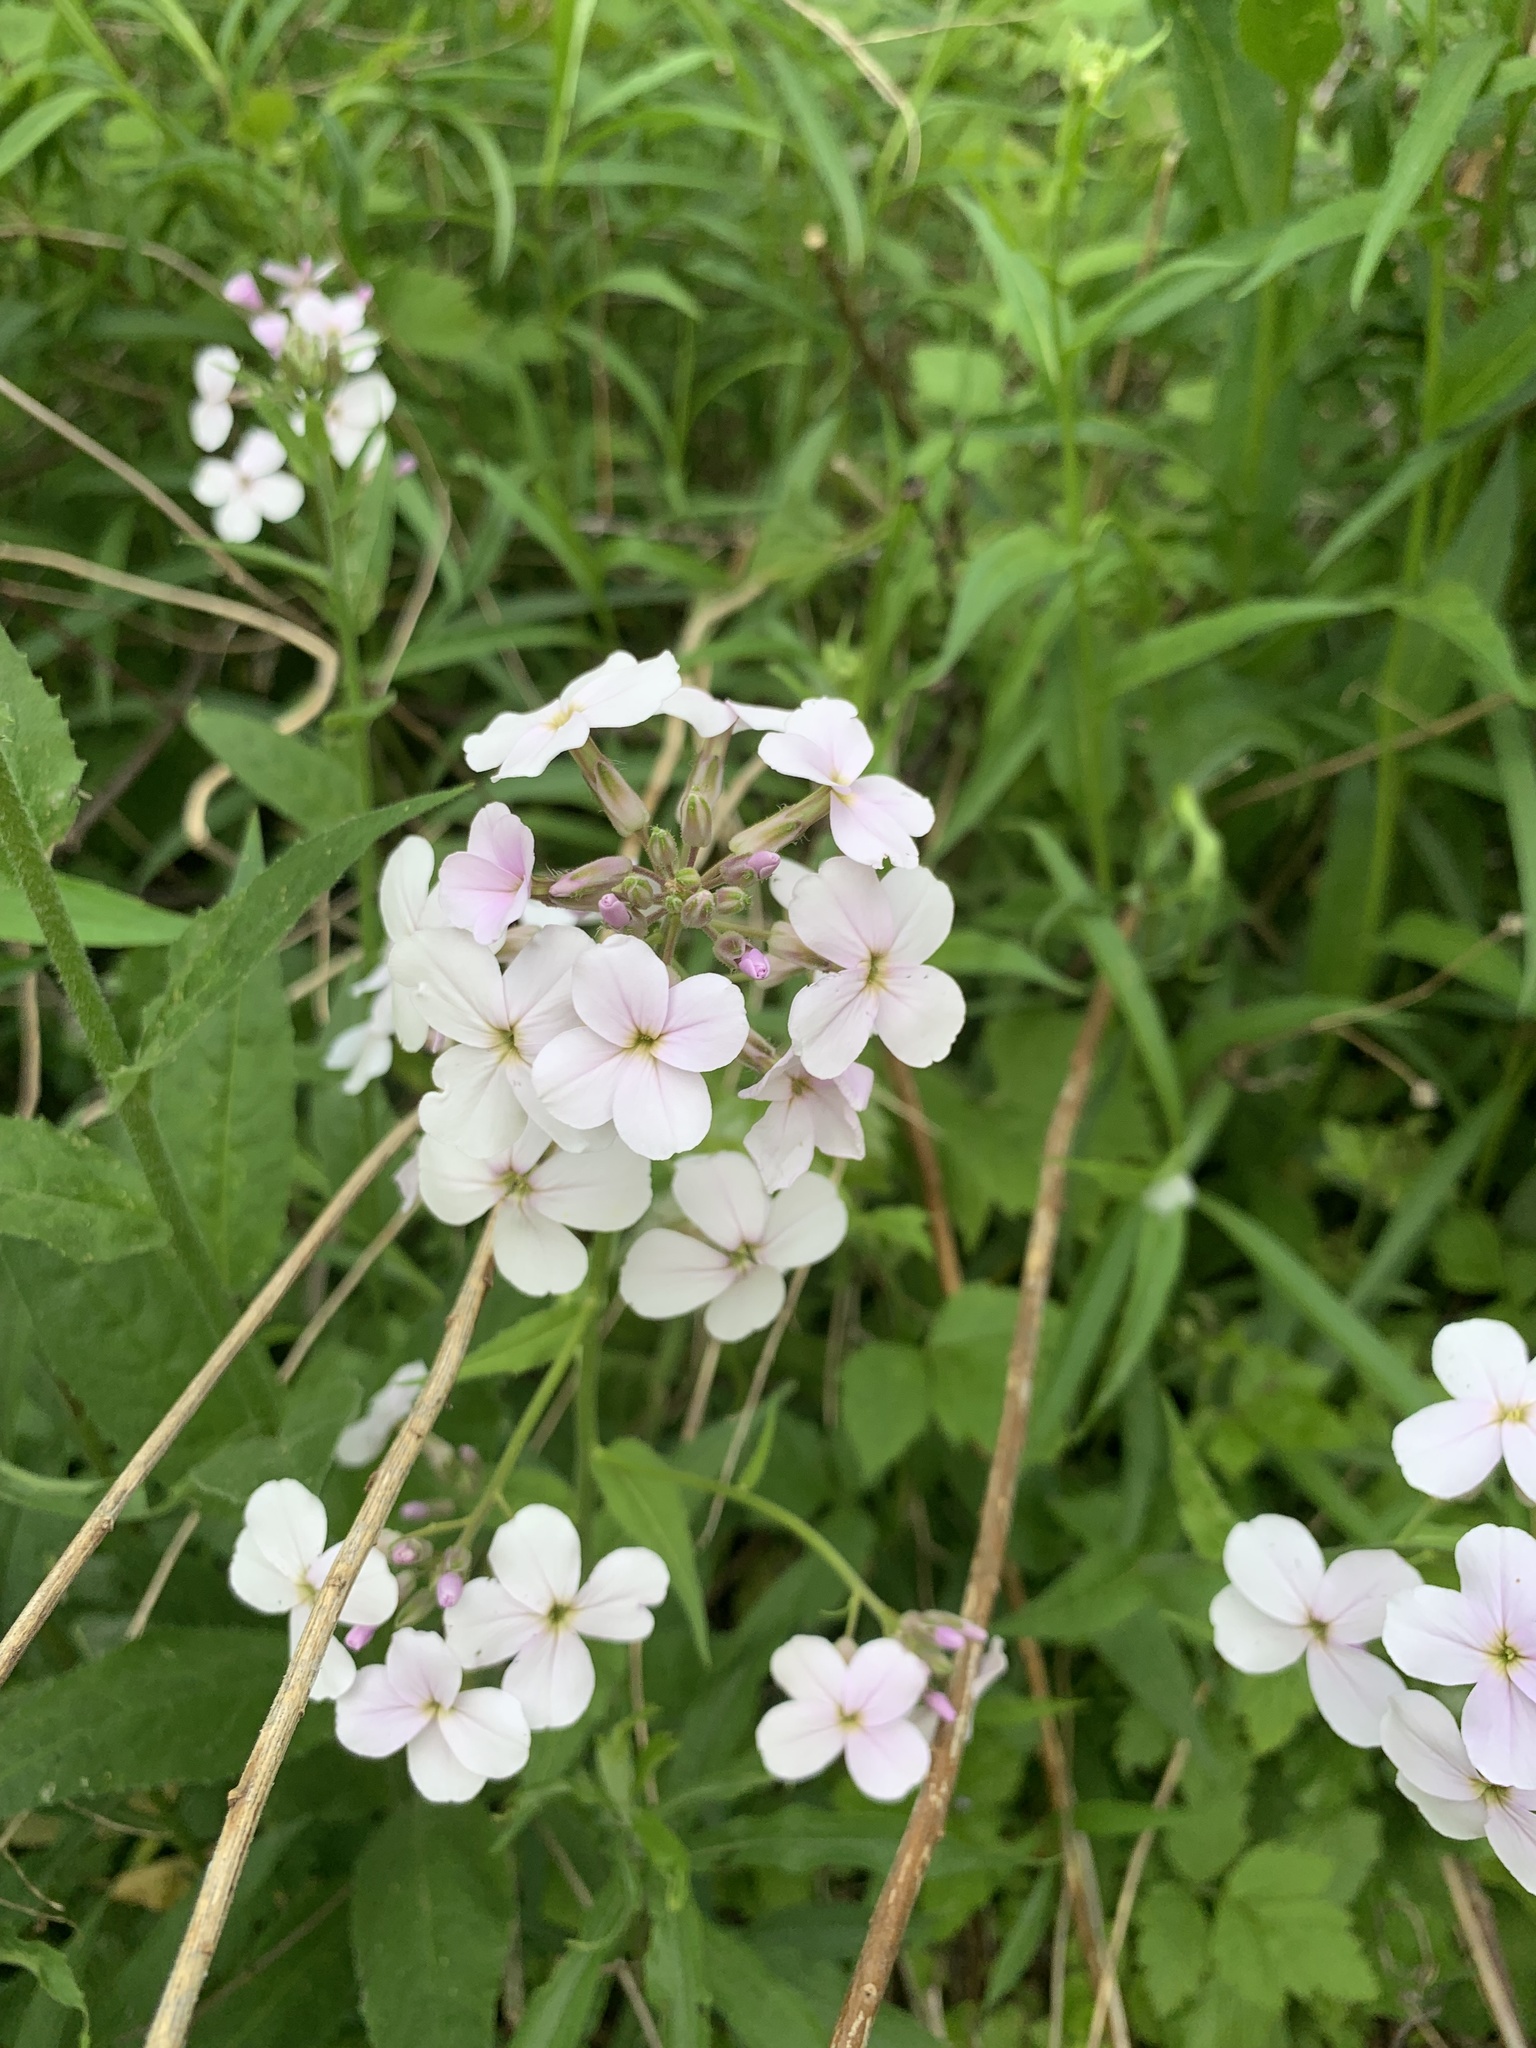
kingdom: Plantae
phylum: Tracheophyta
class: Magnoliopsida
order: Brassicales
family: Brassicaceae
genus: Hesperis
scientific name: Hesperis matronalis
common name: Dame's-violet
